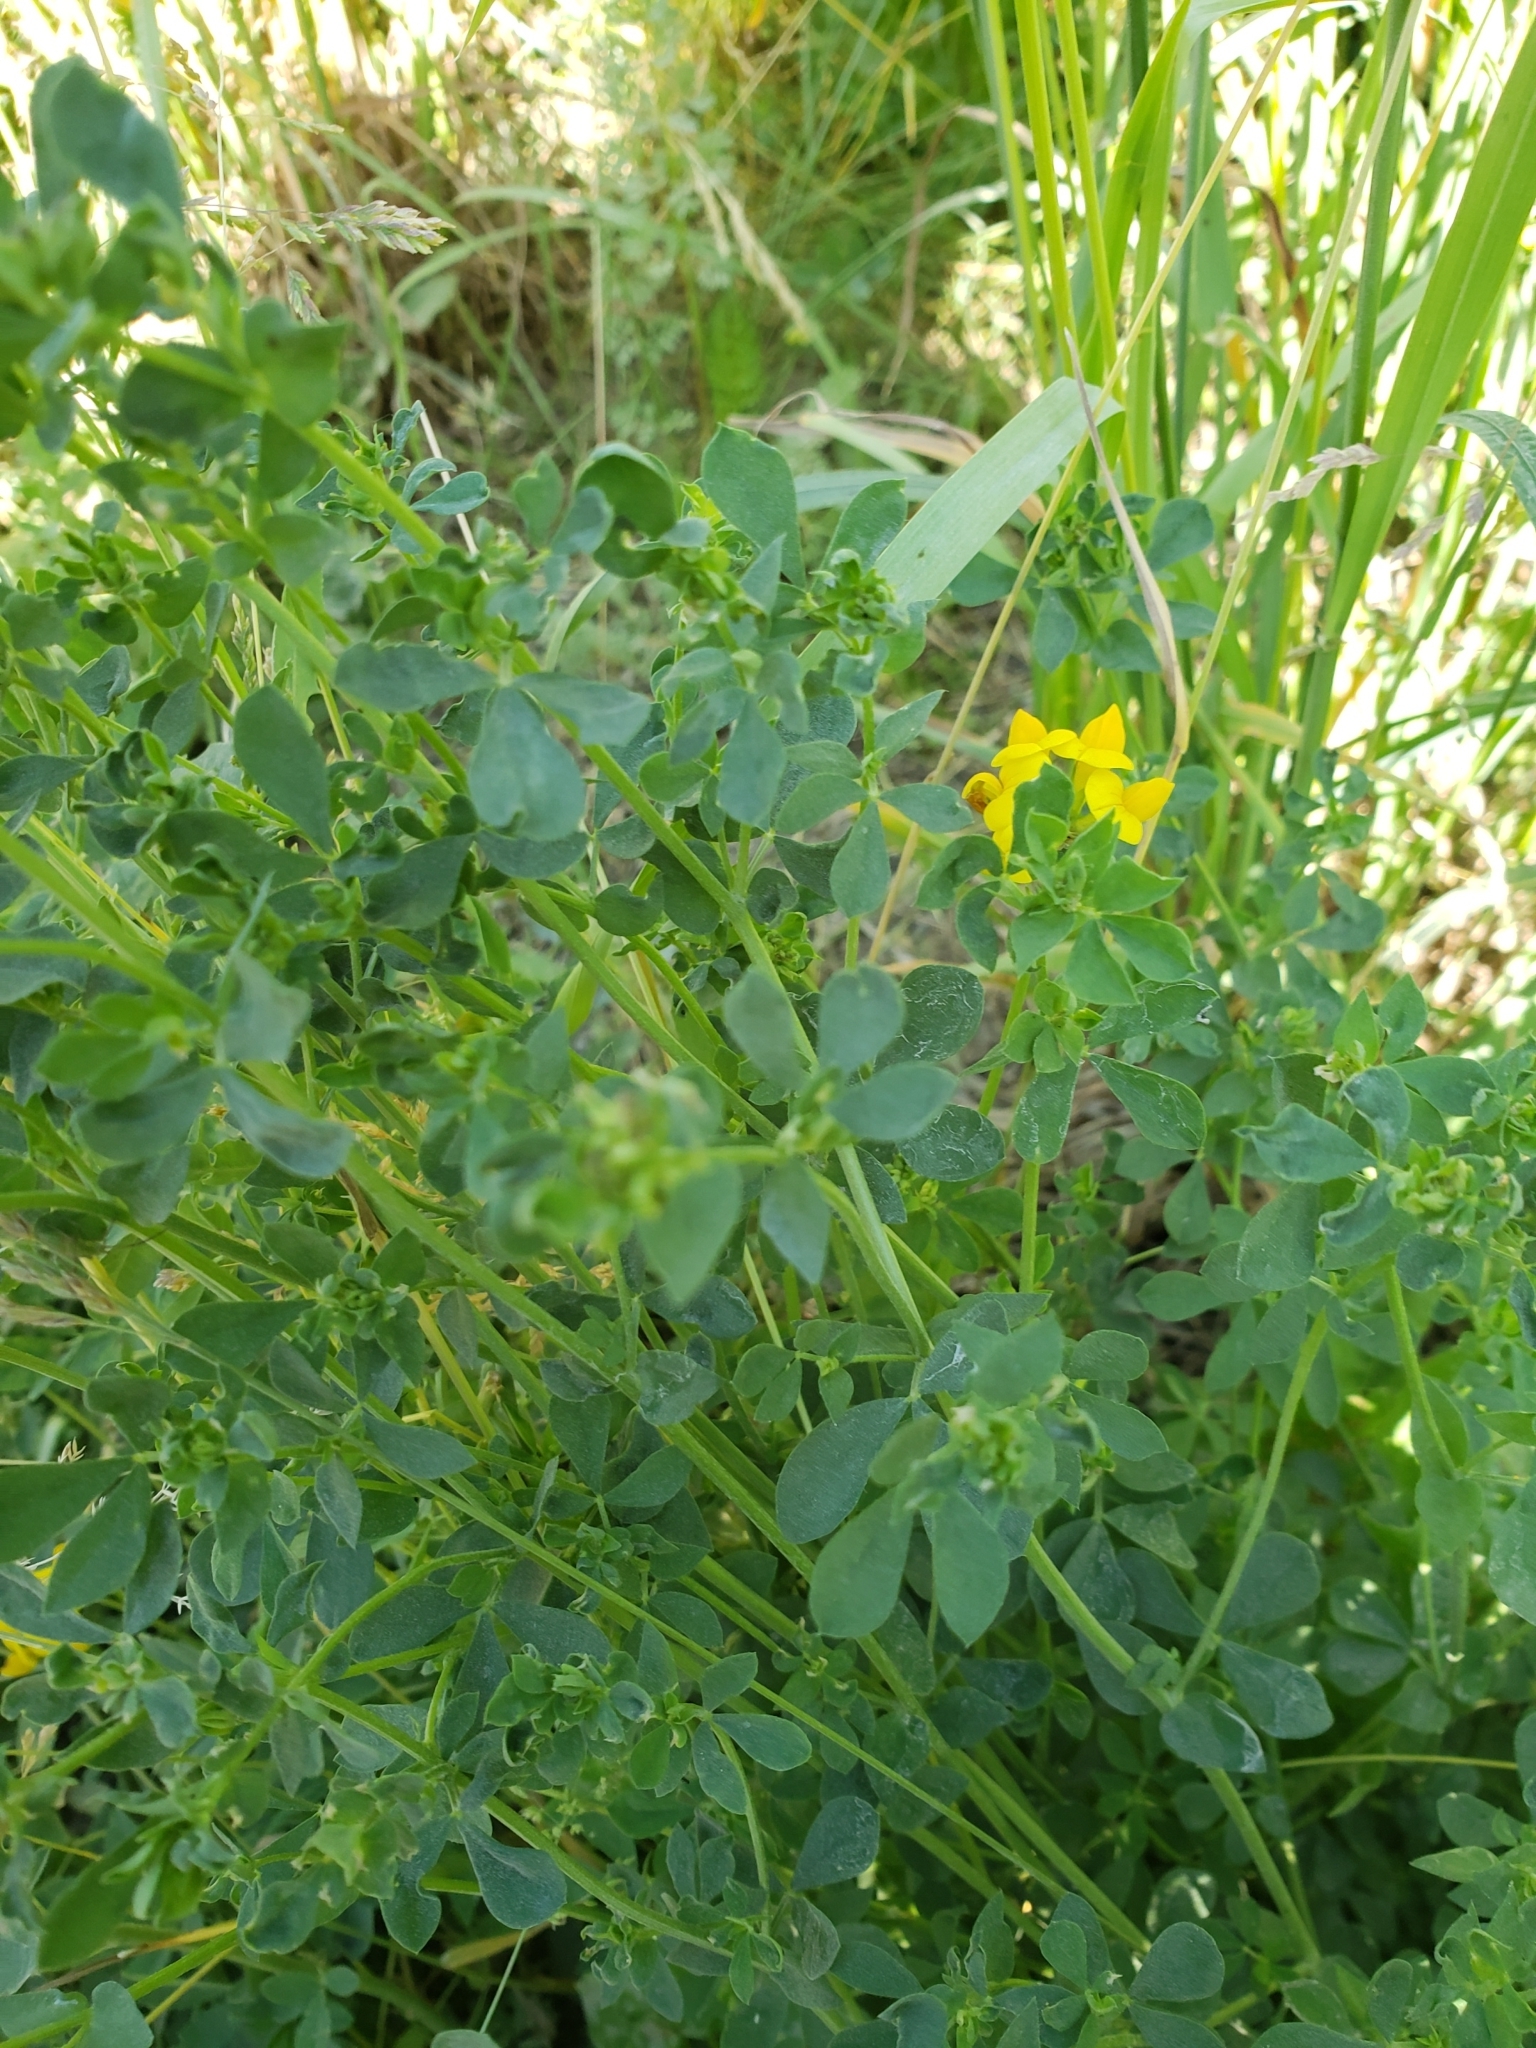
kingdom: Plantae
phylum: Tracheophyta
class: Magnoliopsida
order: Fabales
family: Fabaceae
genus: Lotus
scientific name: Lotus corniculatus
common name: Common bird's-foot-trefoil
